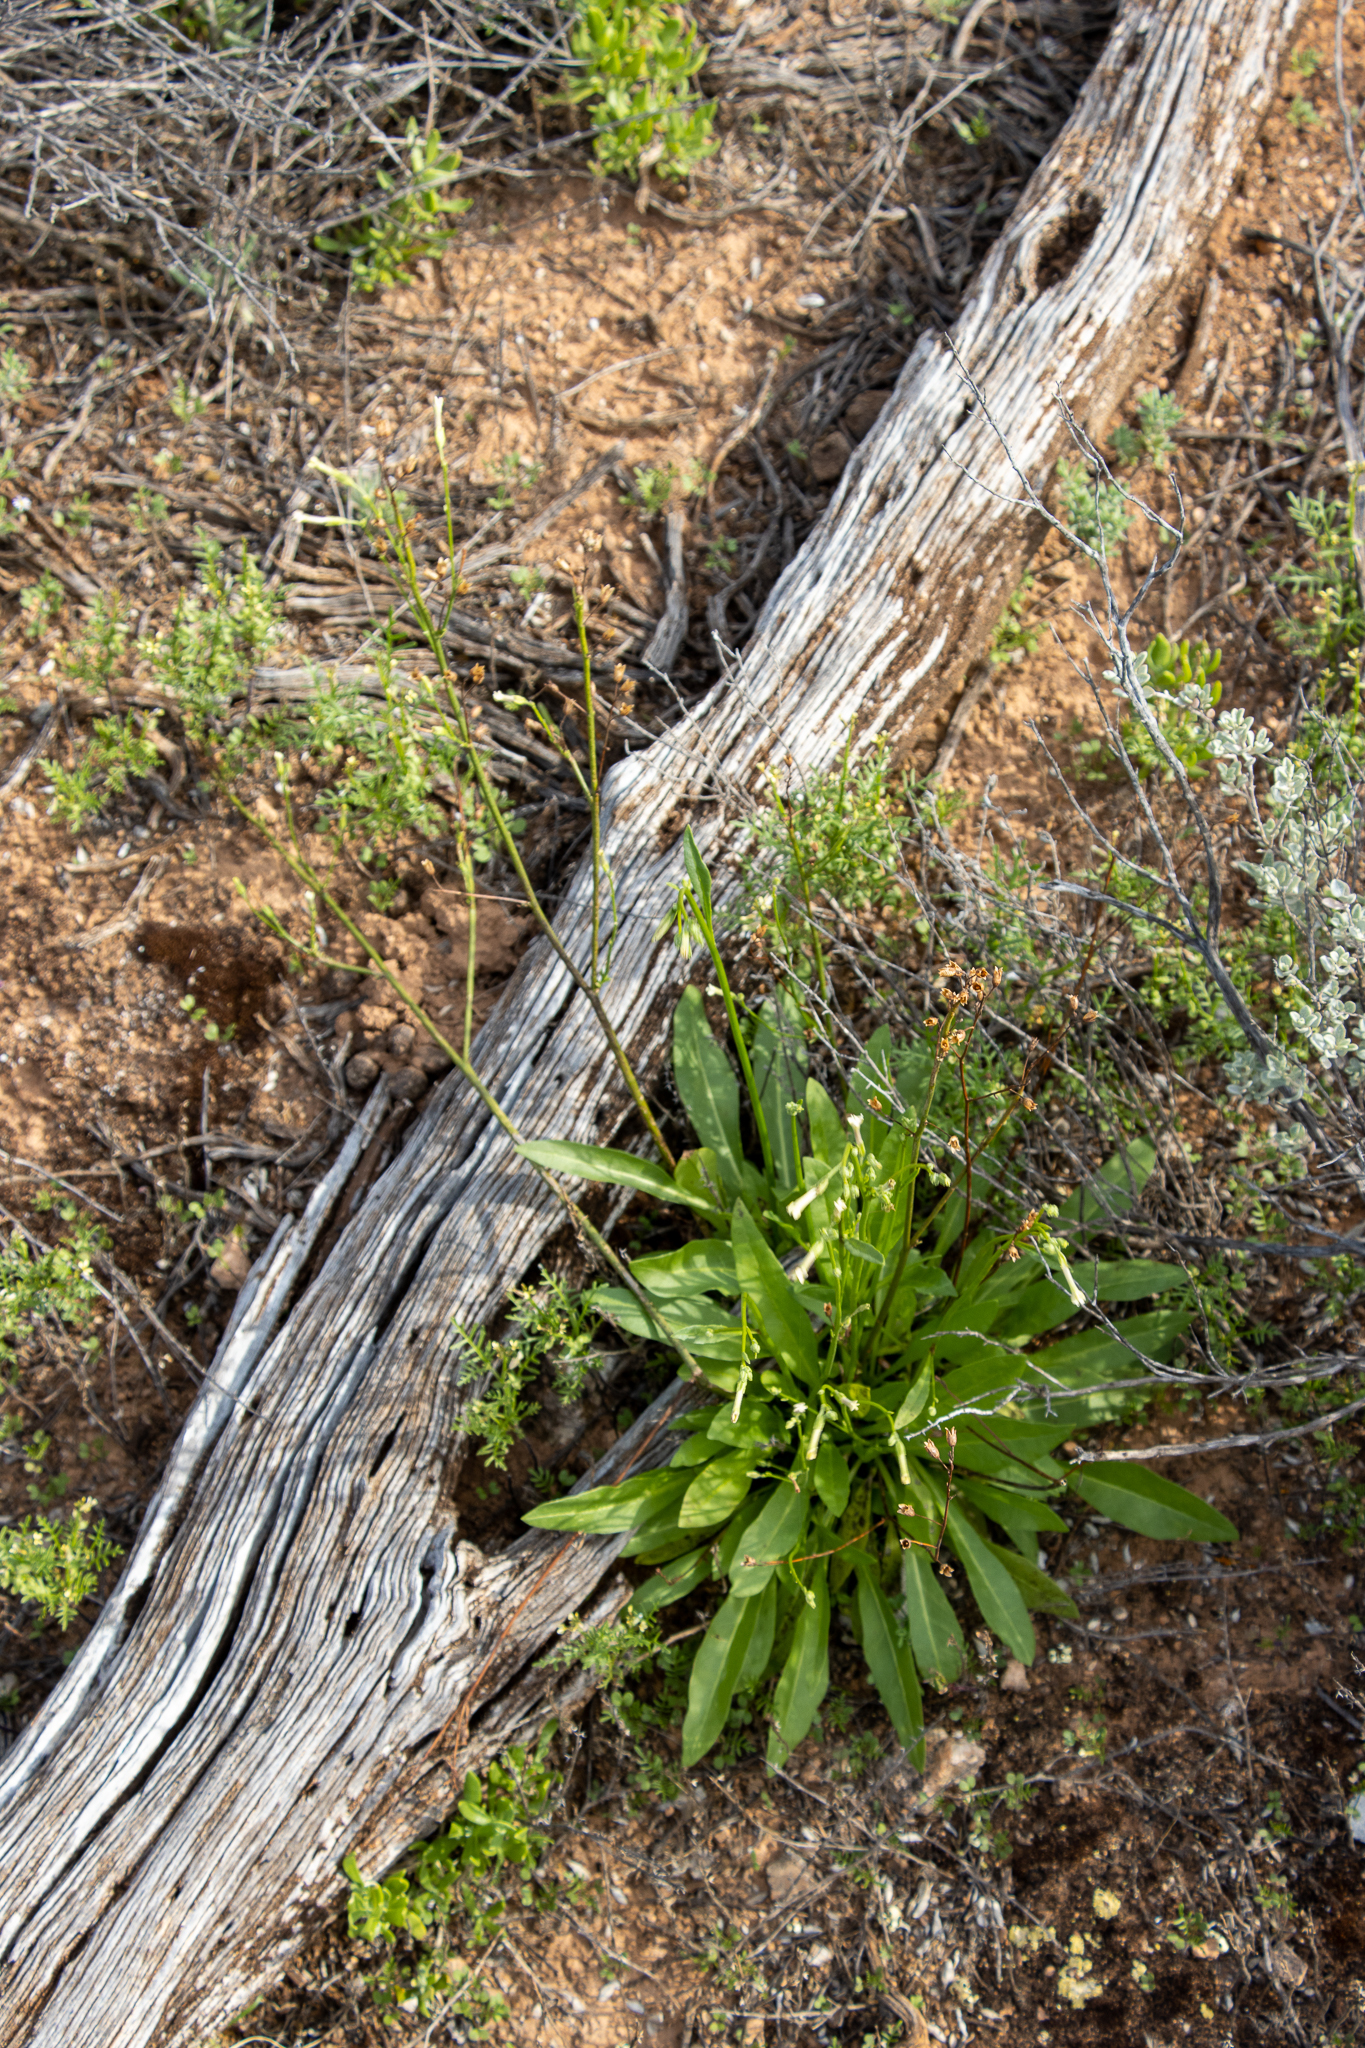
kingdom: Plantae
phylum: Tracheophyta
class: Magnoliopsida
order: Solanales
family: Solanaceae
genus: Nicotiana
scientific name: Nicotiana goodspeedii
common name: Small-flower tobacco
